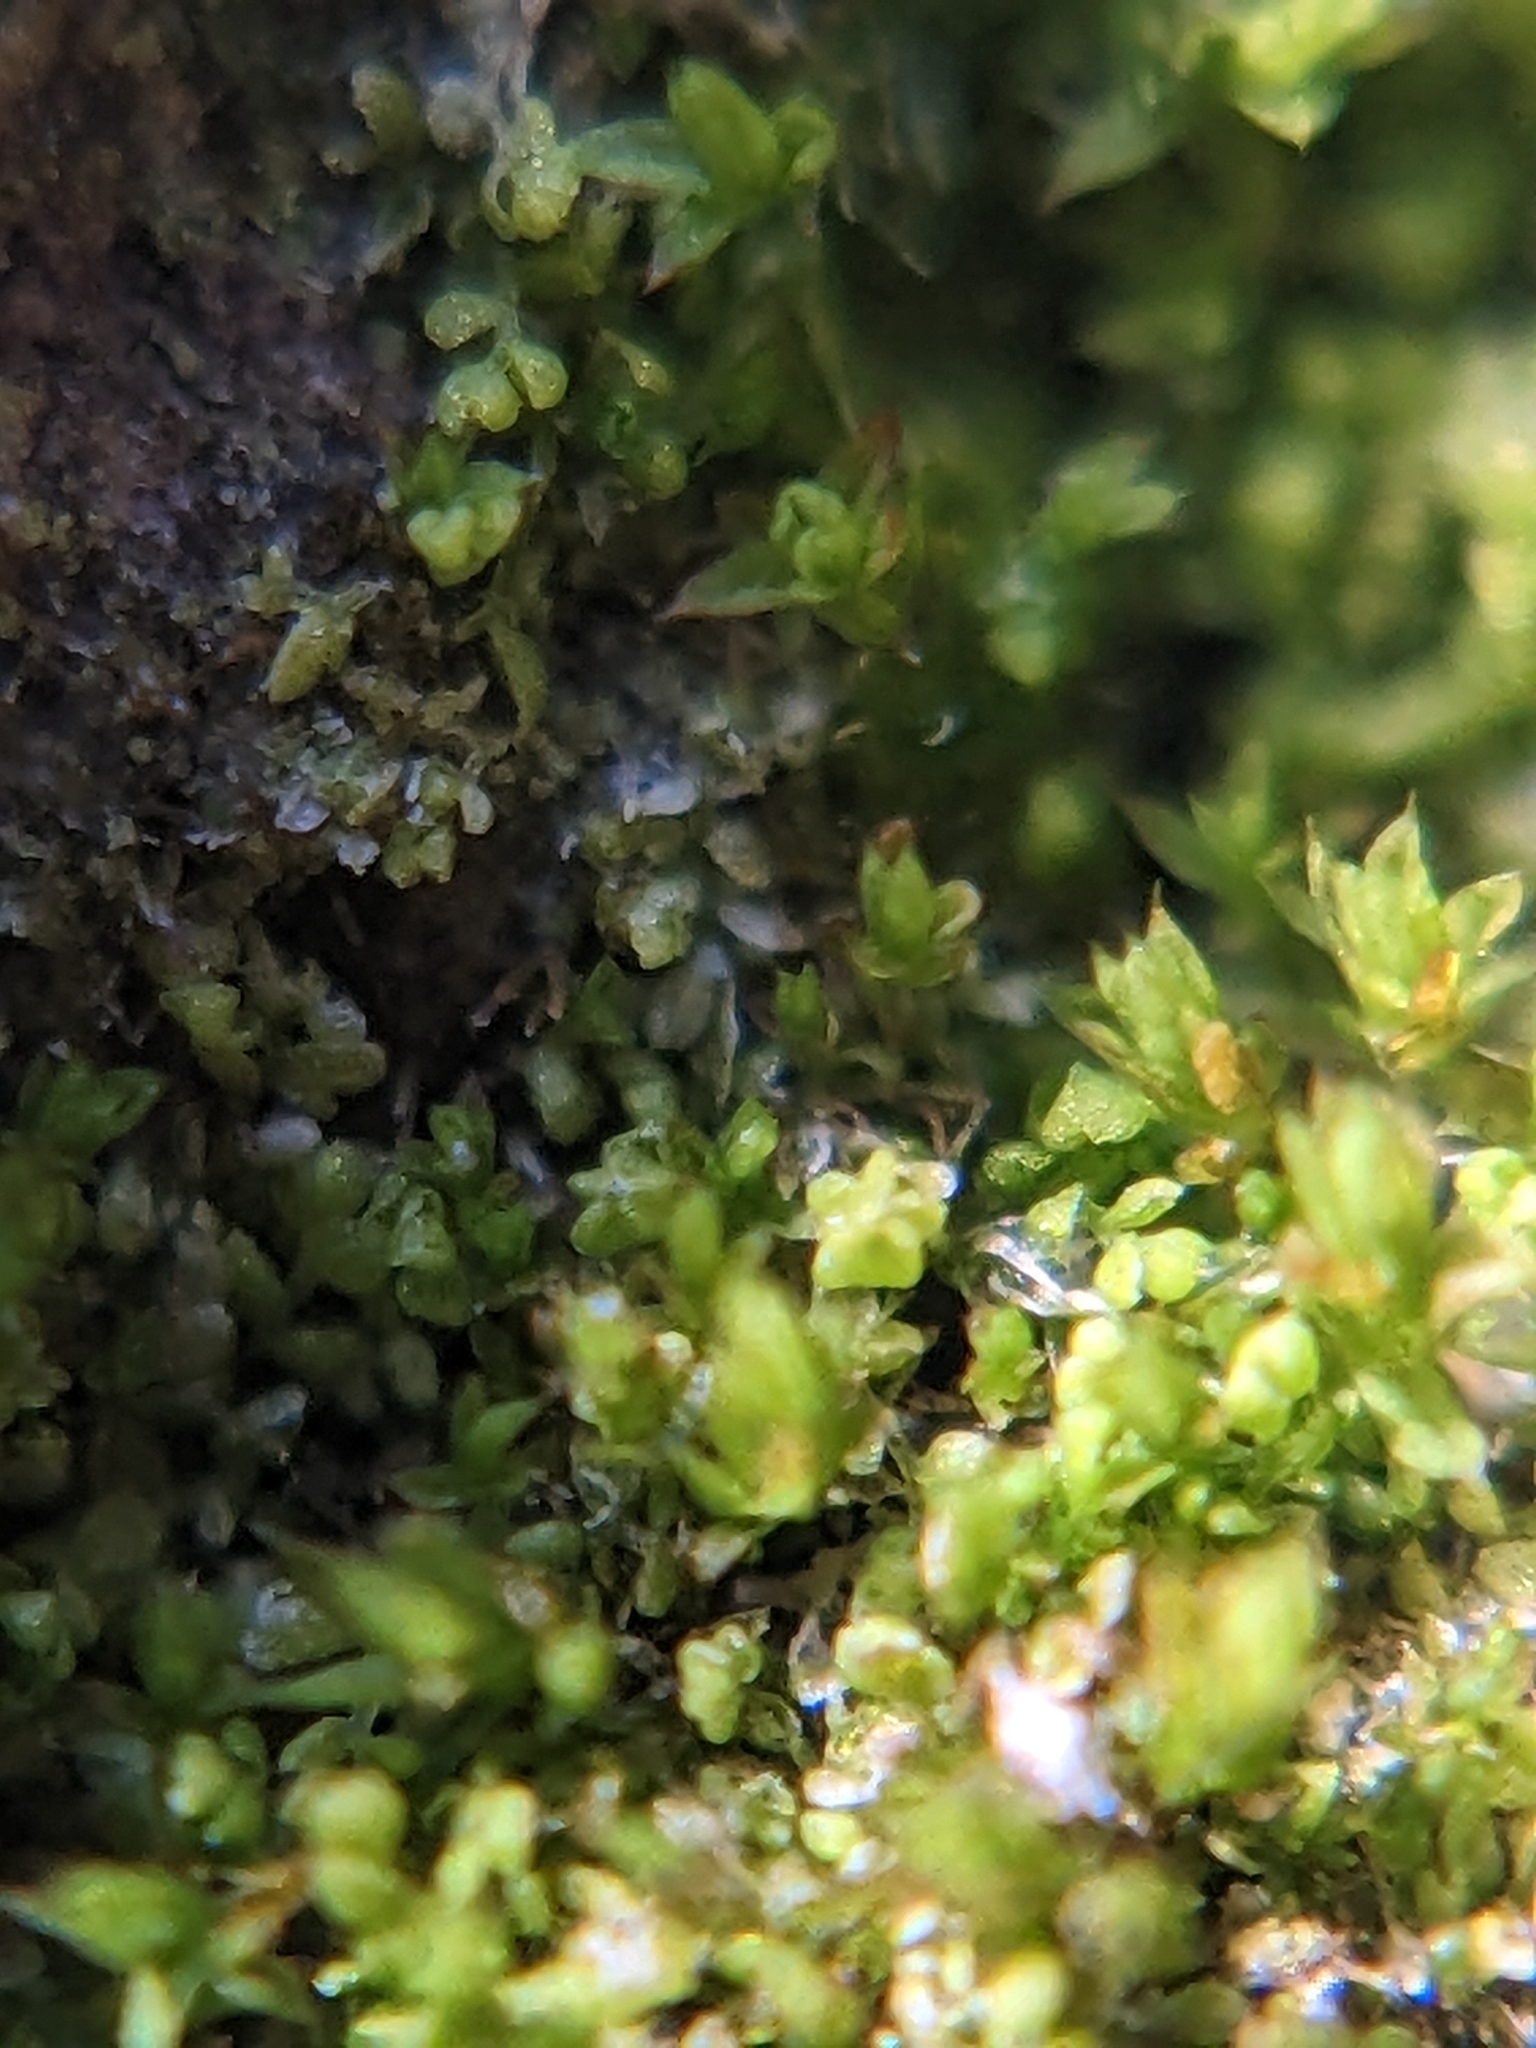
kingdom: Plantae
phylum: Marchantiophyta
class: Jungermanniopsida
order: Porellales
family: Lejeuneaceae
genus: Myriocoleopsis
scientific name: Myriocoleopsis minutissima
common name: Minute pouncewort
